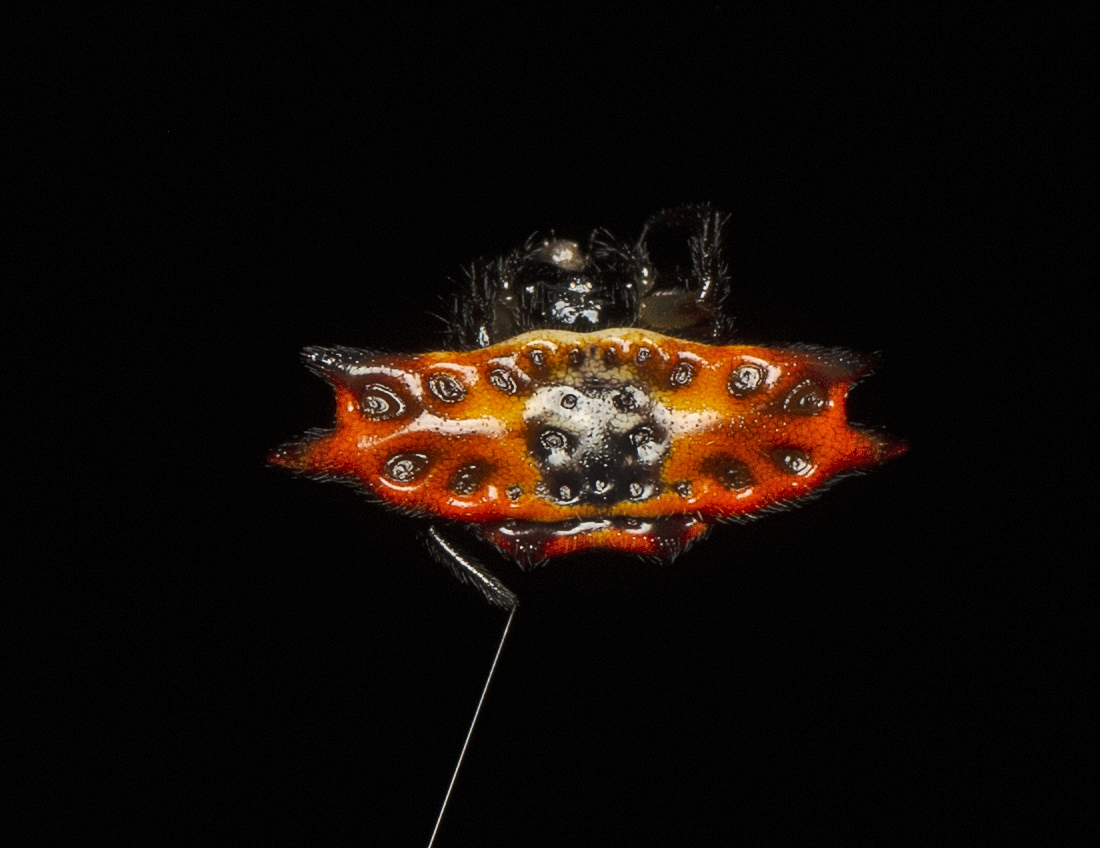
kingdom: Animalia
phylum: Arthropoda
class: Arachnida
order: Araneae
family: Araneidae
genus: Gasteracantha
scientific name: Gasteracantha quadrispinosa
